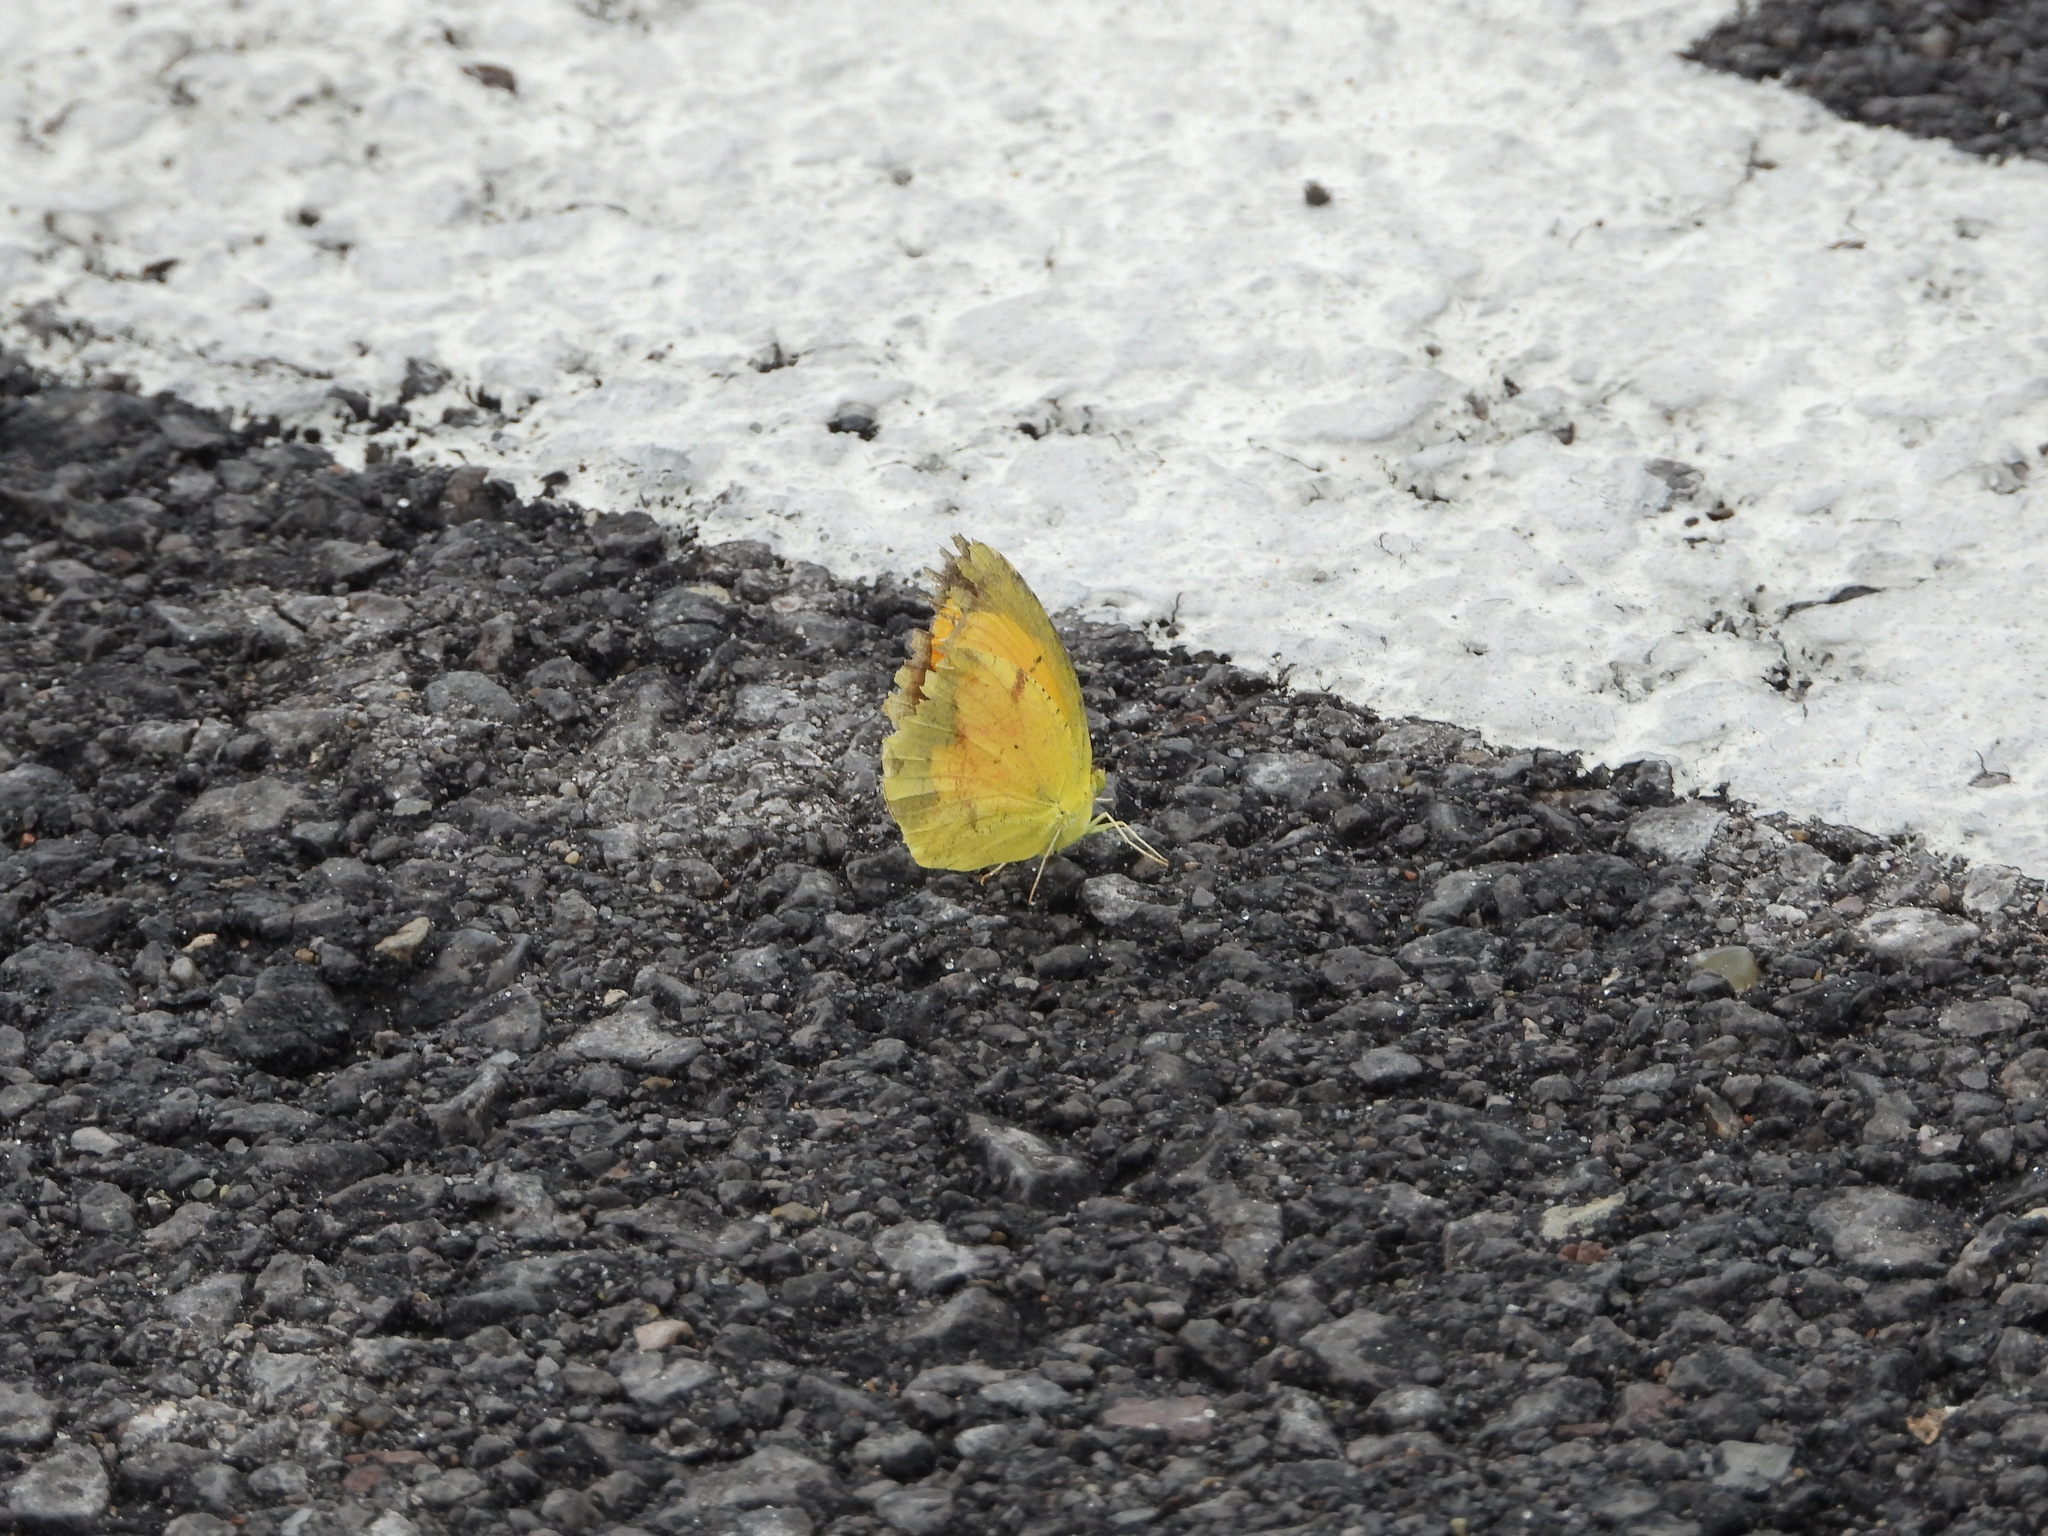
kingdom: Animalia
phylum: Arthropoda
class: Insecta
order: Lepidoptera
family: Pieridae
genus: Abaeis
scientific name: Abaeis nicippe
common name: Sleepy orange
